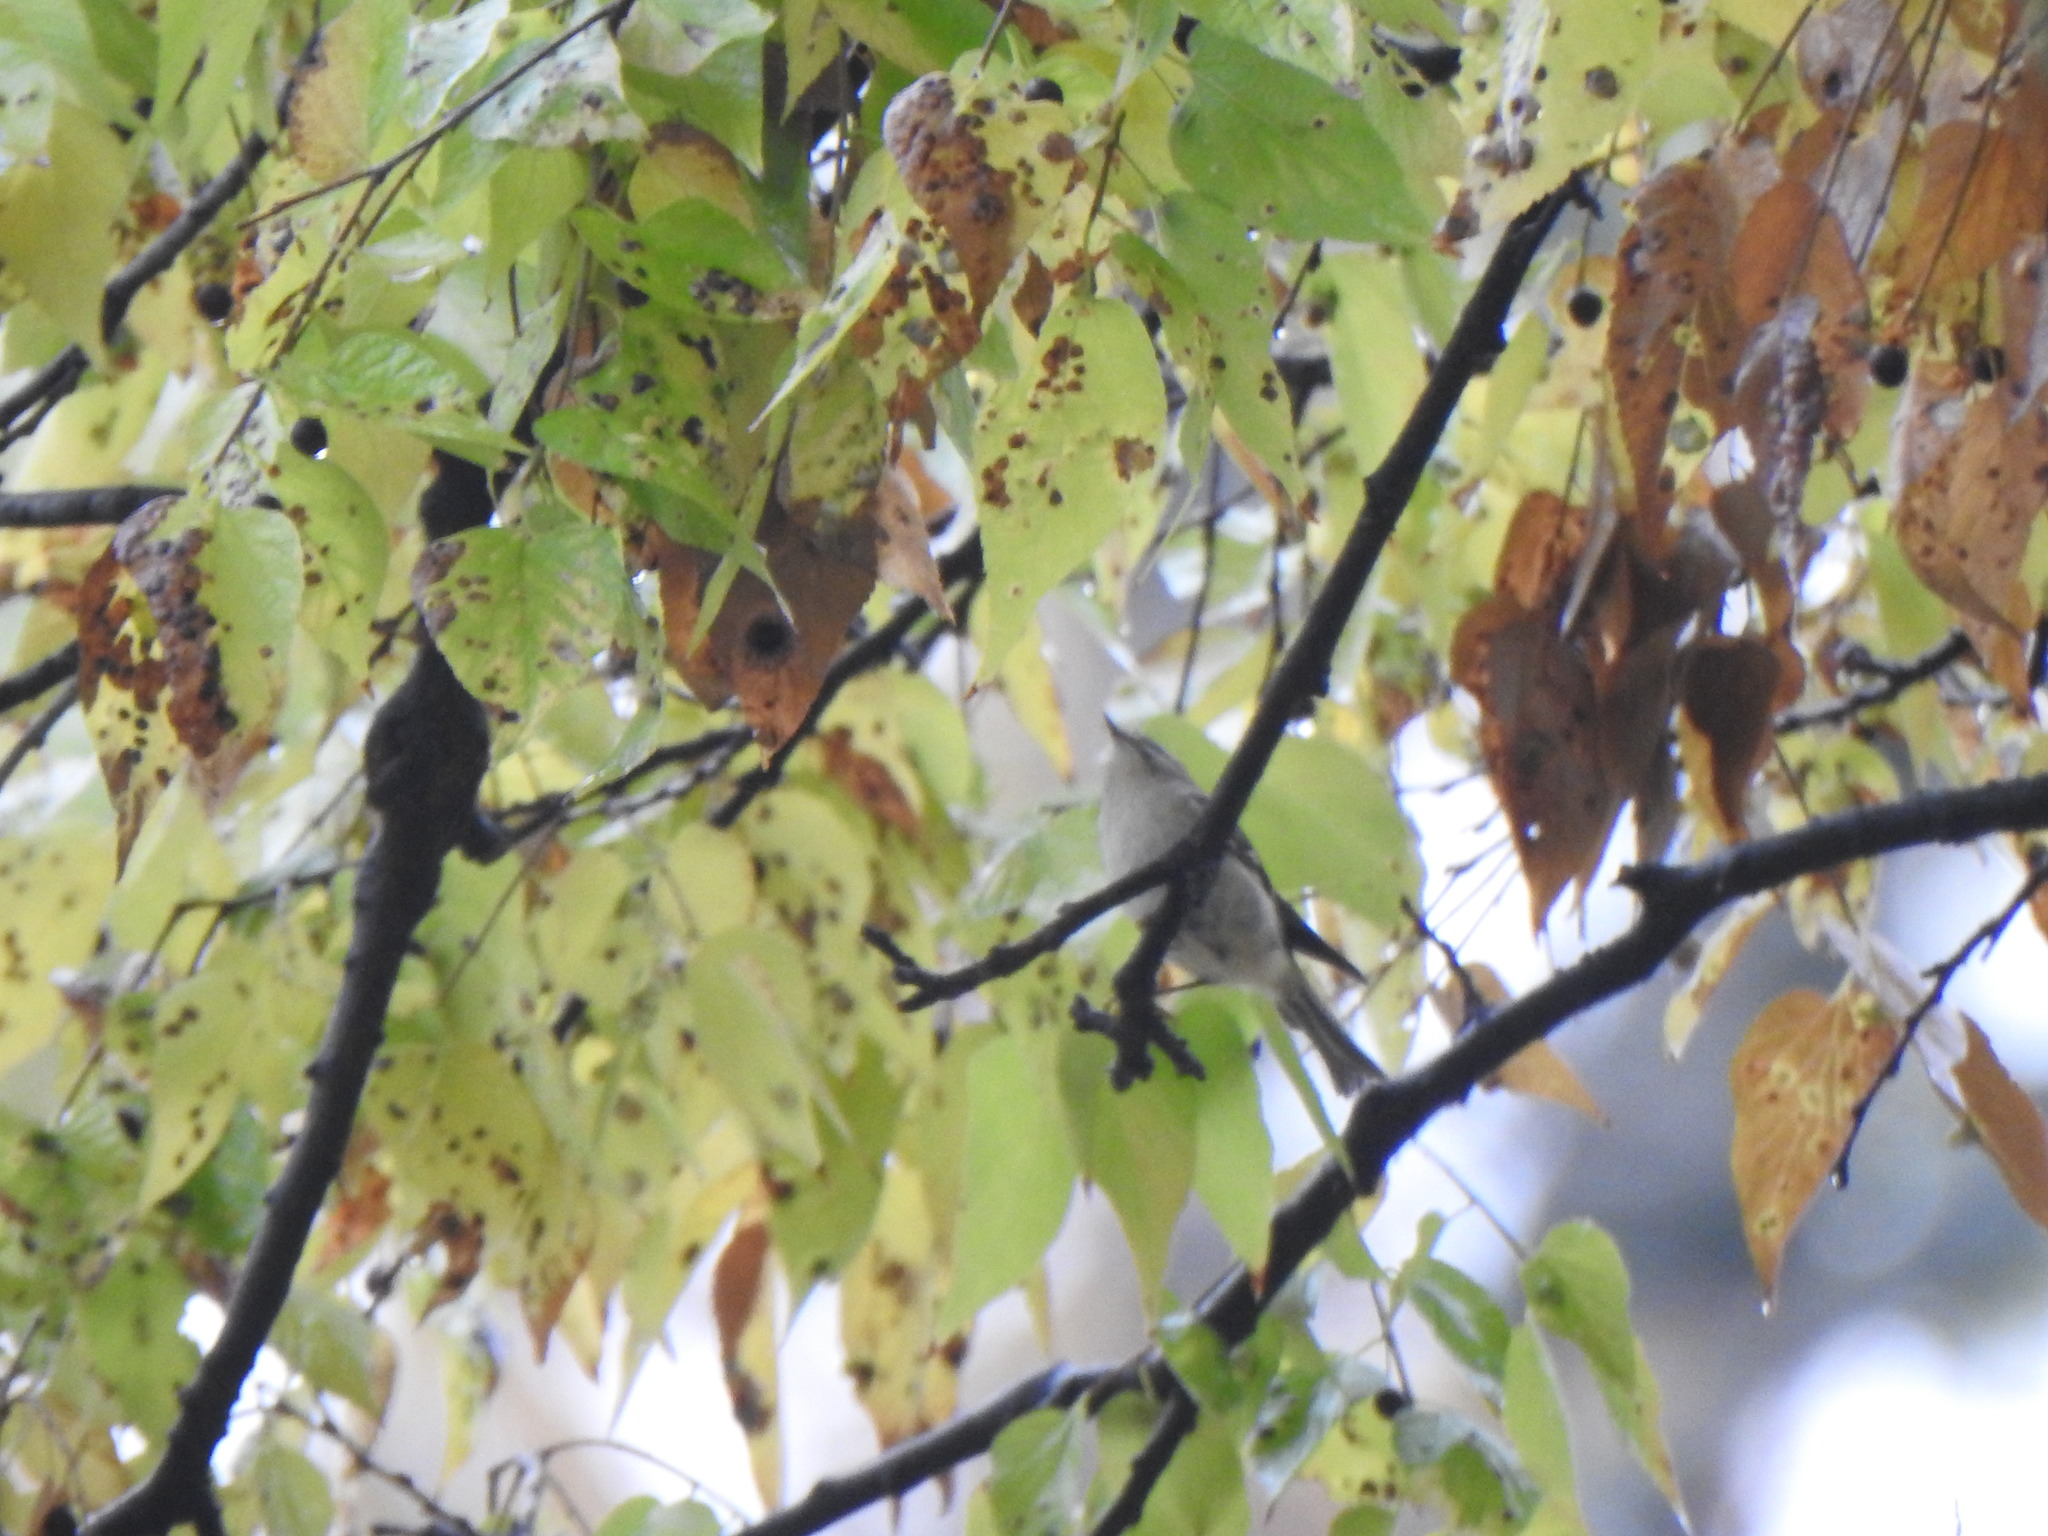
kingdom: Animalia
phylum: Chordata
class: Aves
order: Passeriformes
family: Regulidae
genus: Regulus
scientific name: Regulus satrapa
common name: Golden-crowned kinglet
